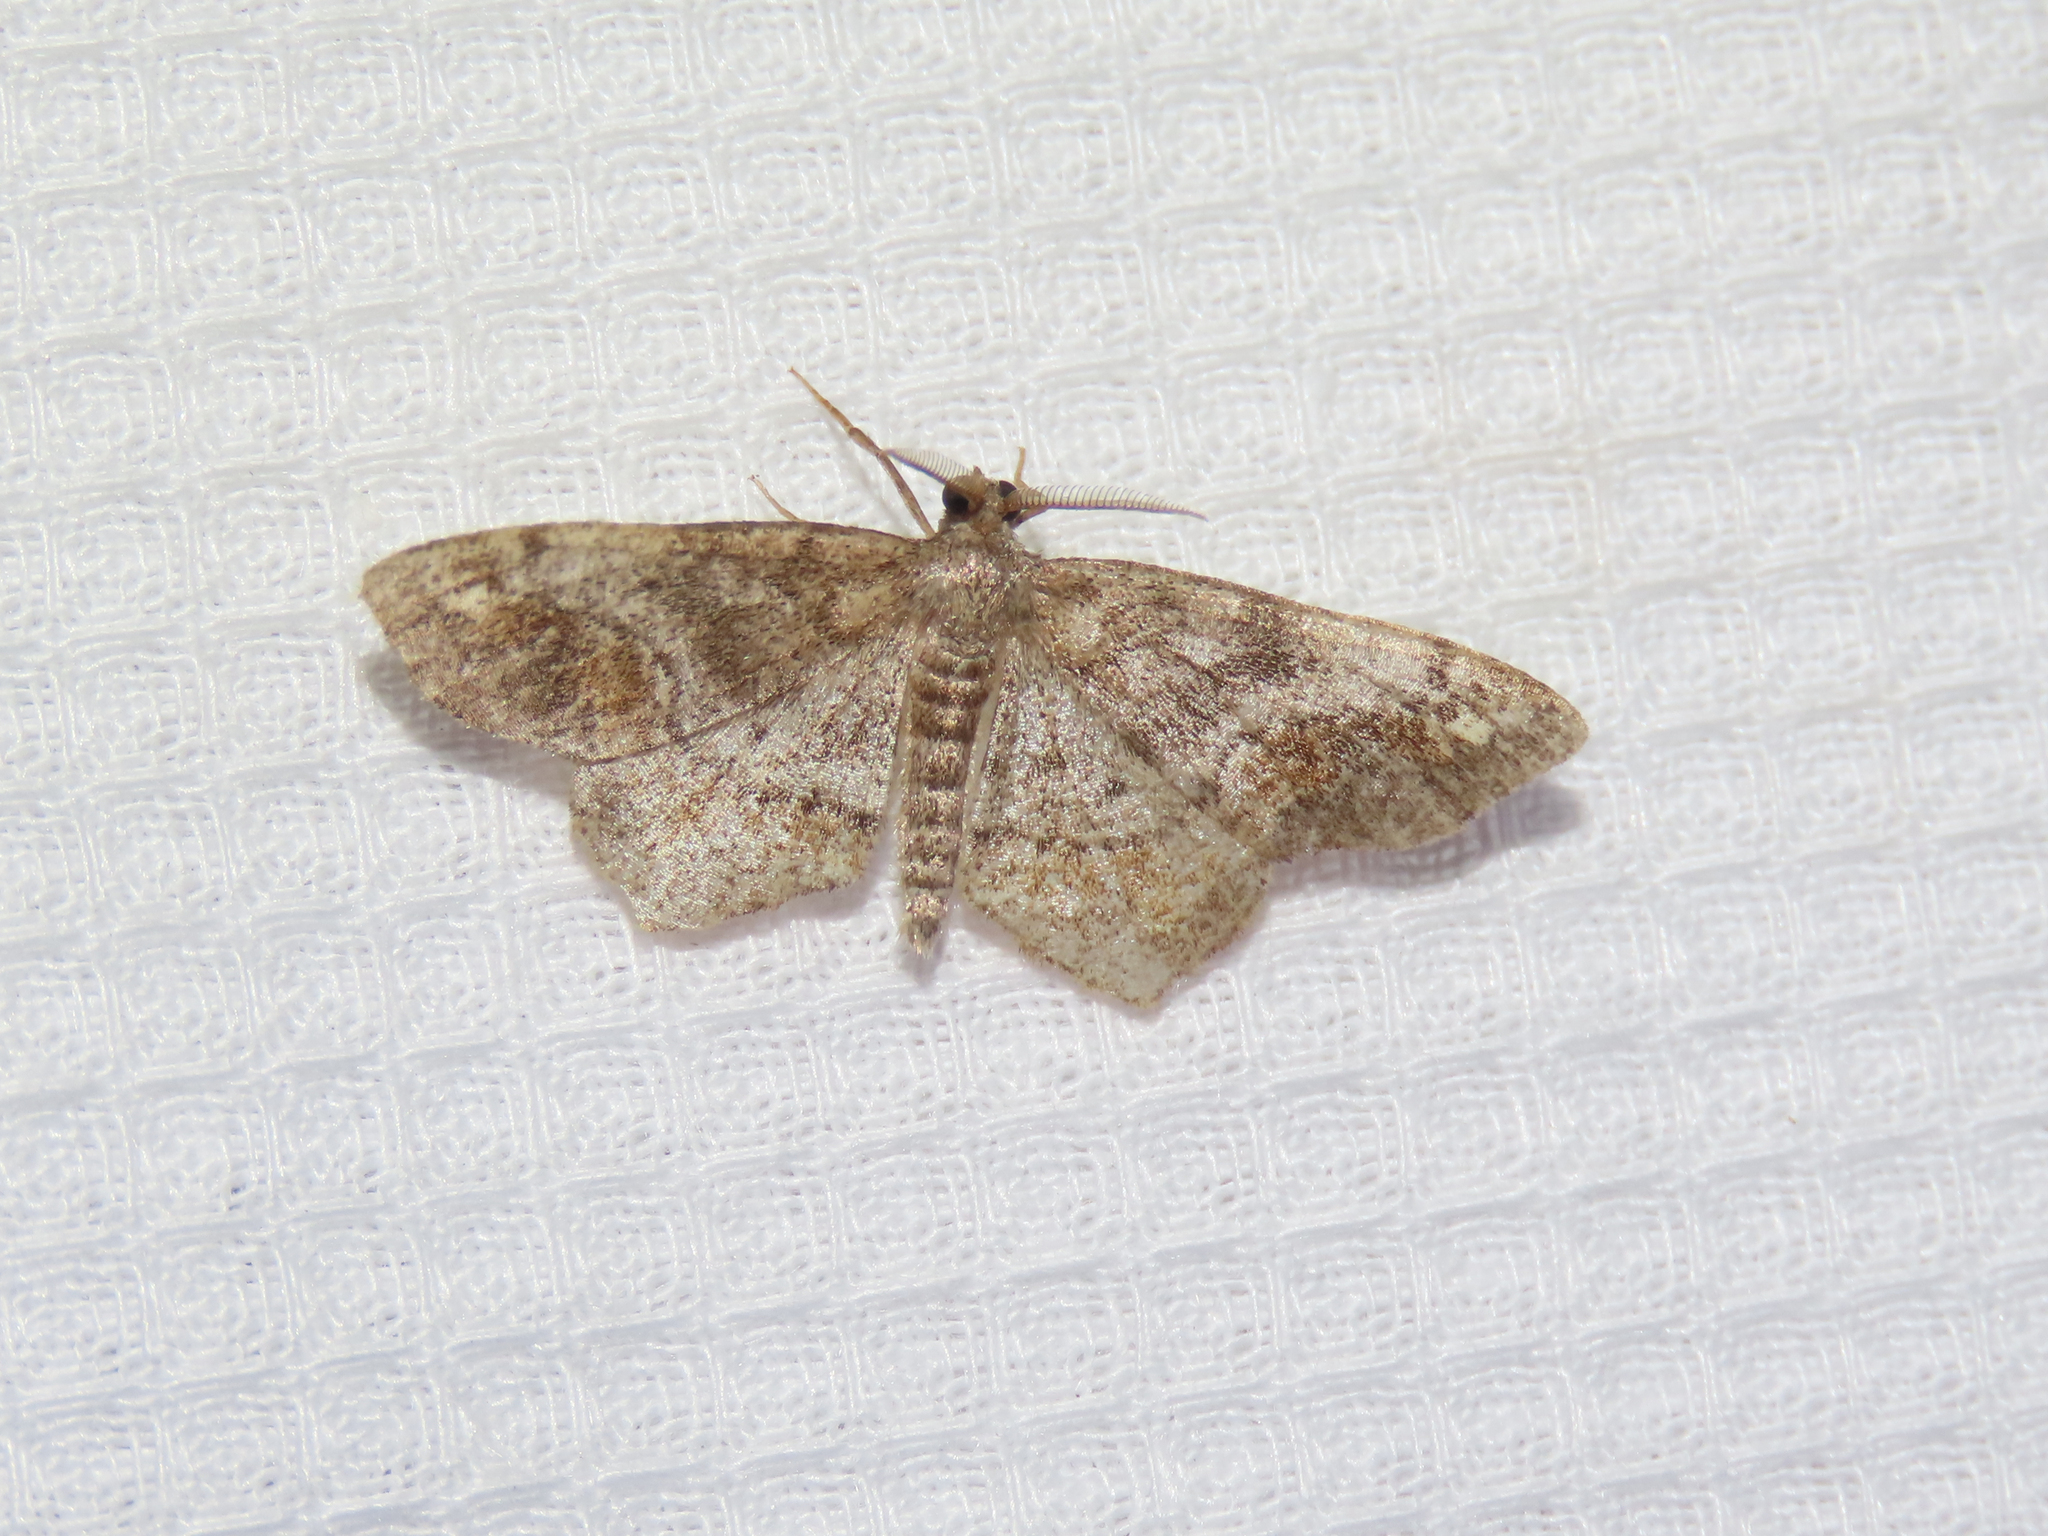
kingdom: Animalia
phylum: Arthropoda
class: Insecta
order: Lepidoptera
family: Geometridae
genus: Hypagyrtis
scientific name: Hypagyrtis unipunctata
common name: One-spotted variant
